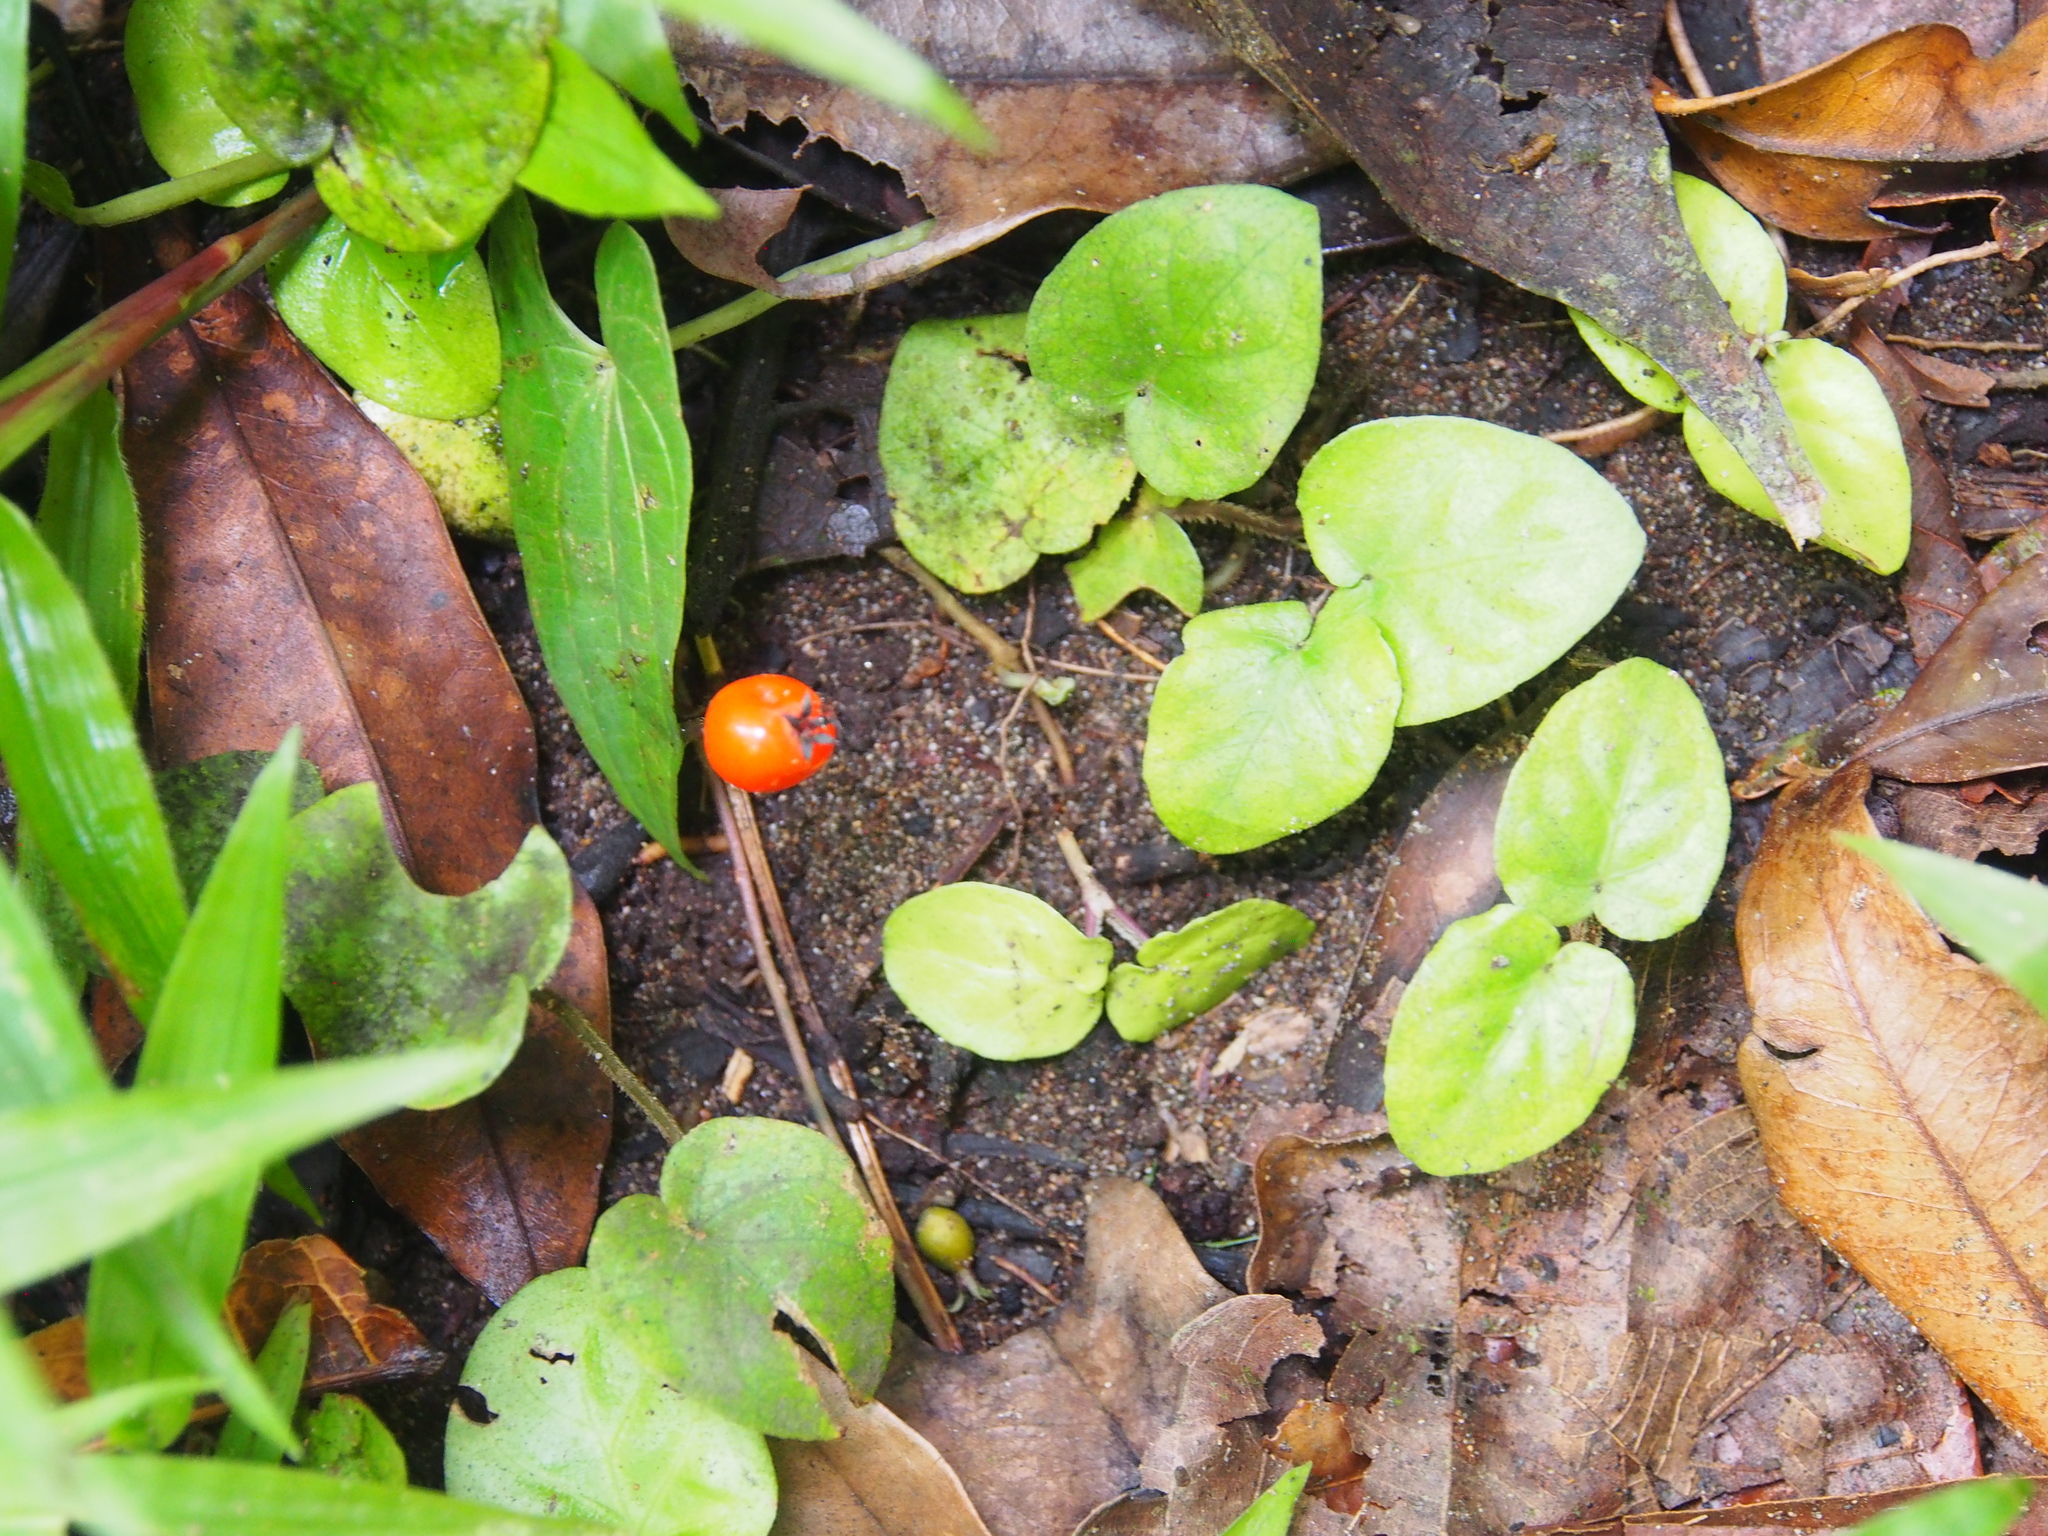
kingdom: Plantae
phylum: Tracheophyta
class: Magnoliopsida
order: Gentianales
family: Rubiaceae
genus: Geophila
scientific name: Geophila repens
